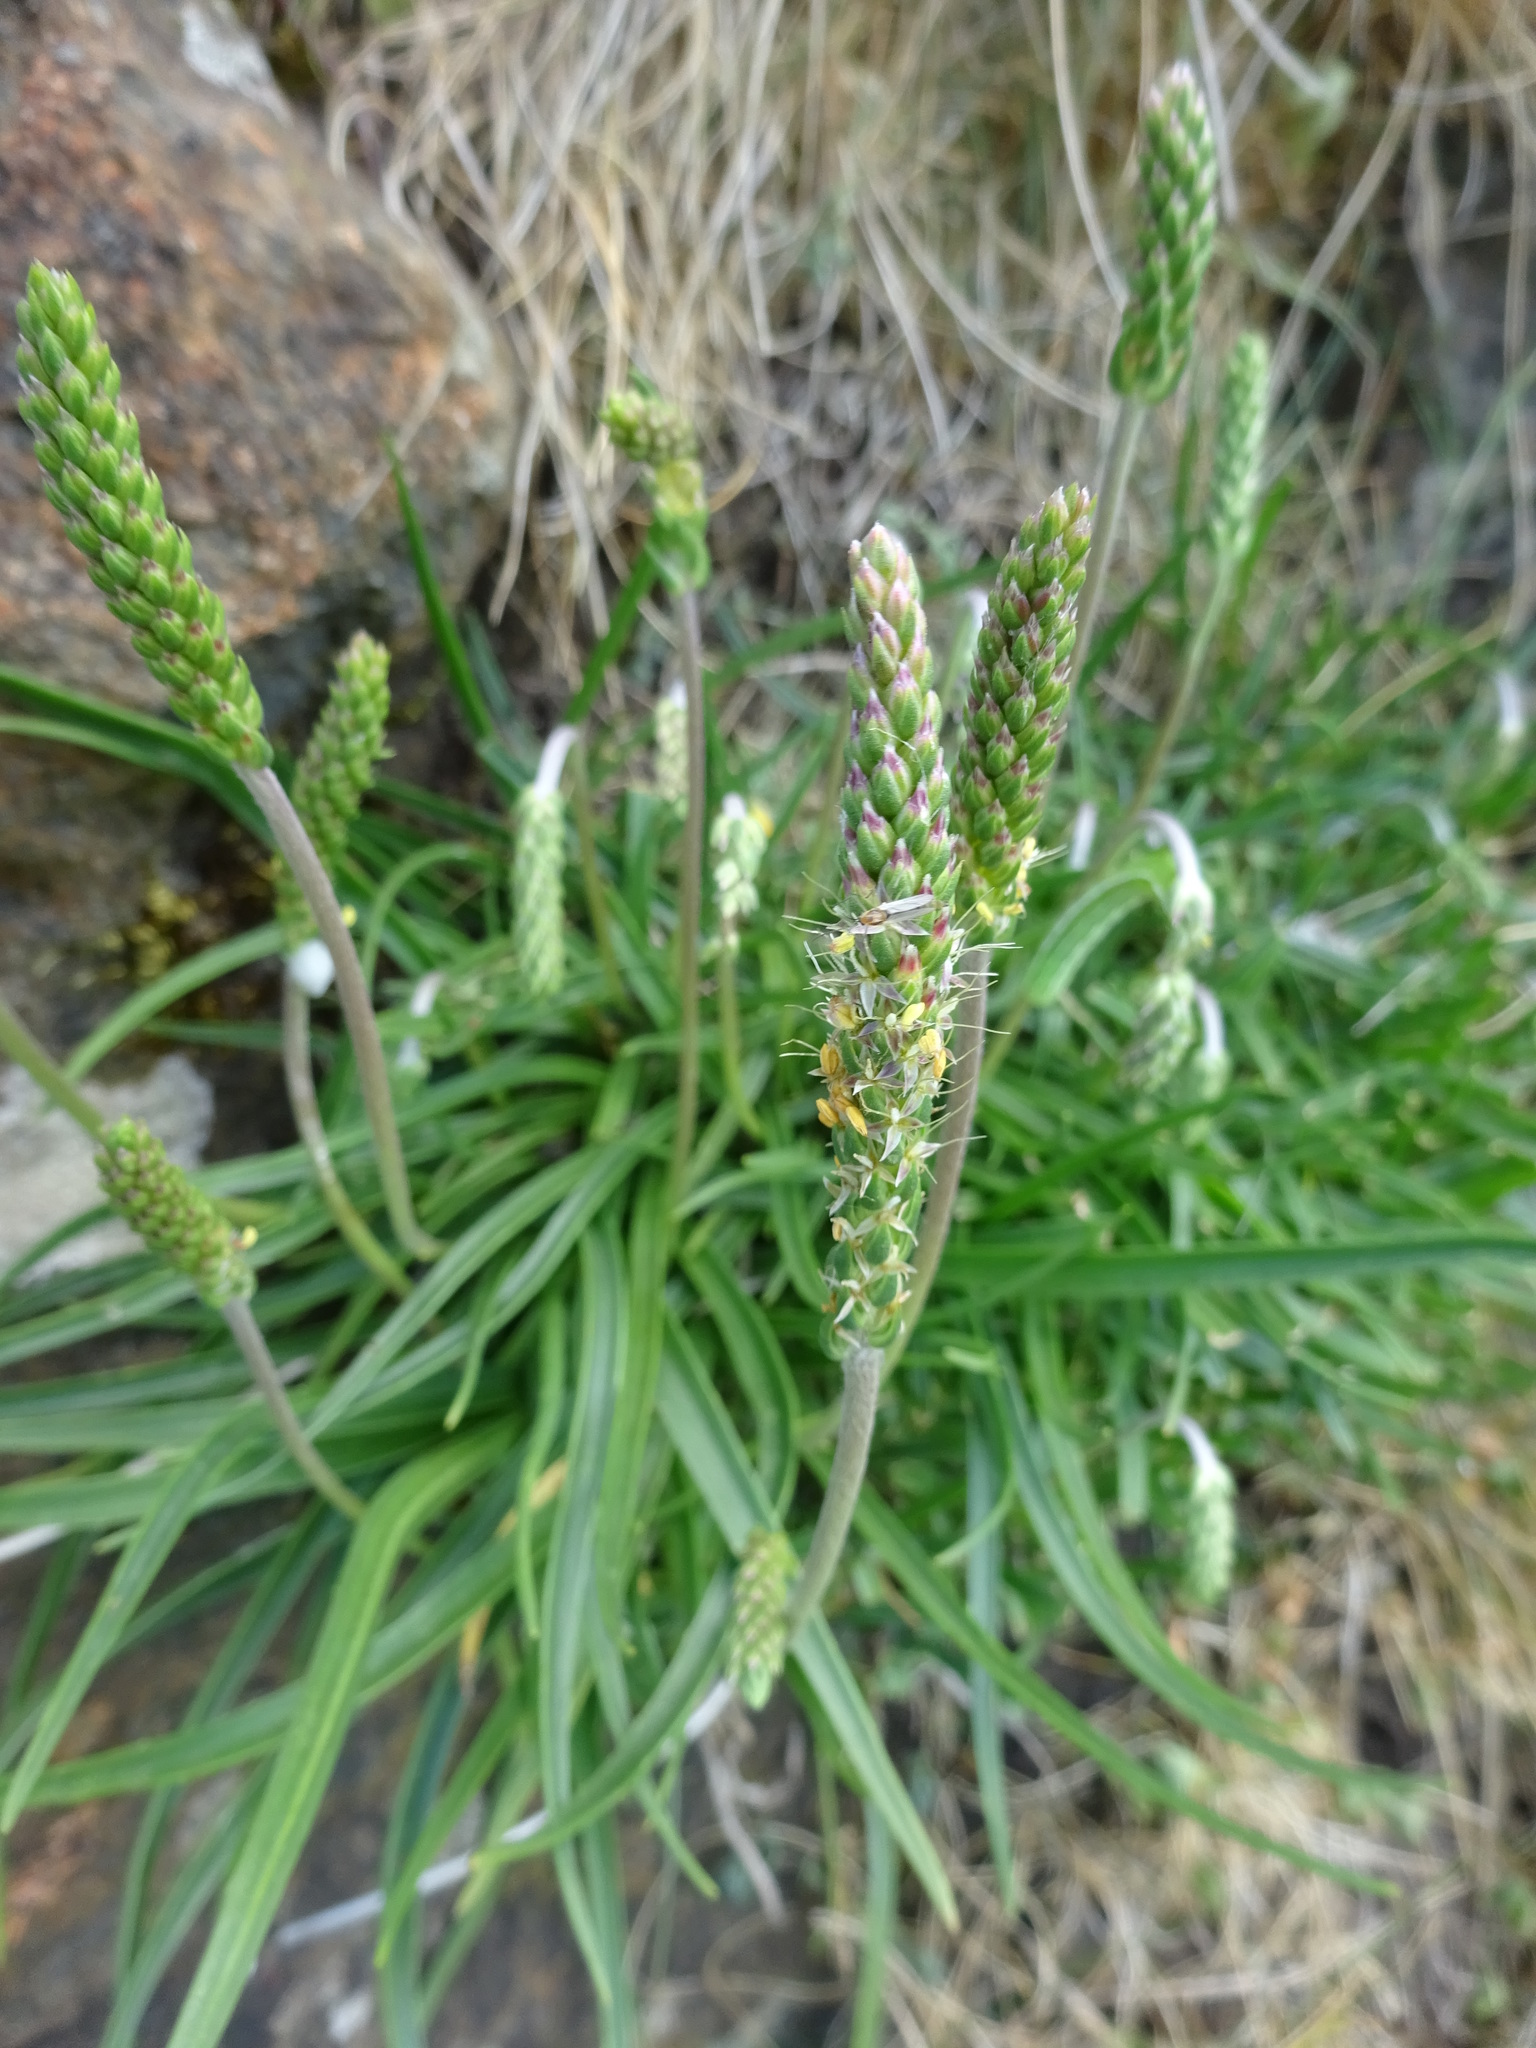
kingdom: Plantae
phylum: Tracheophyta
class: Magnoliopsida
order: Lamiales
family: Plantaginaceae
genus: Plantago
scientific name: Plantago maritima
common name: Sea plantain
